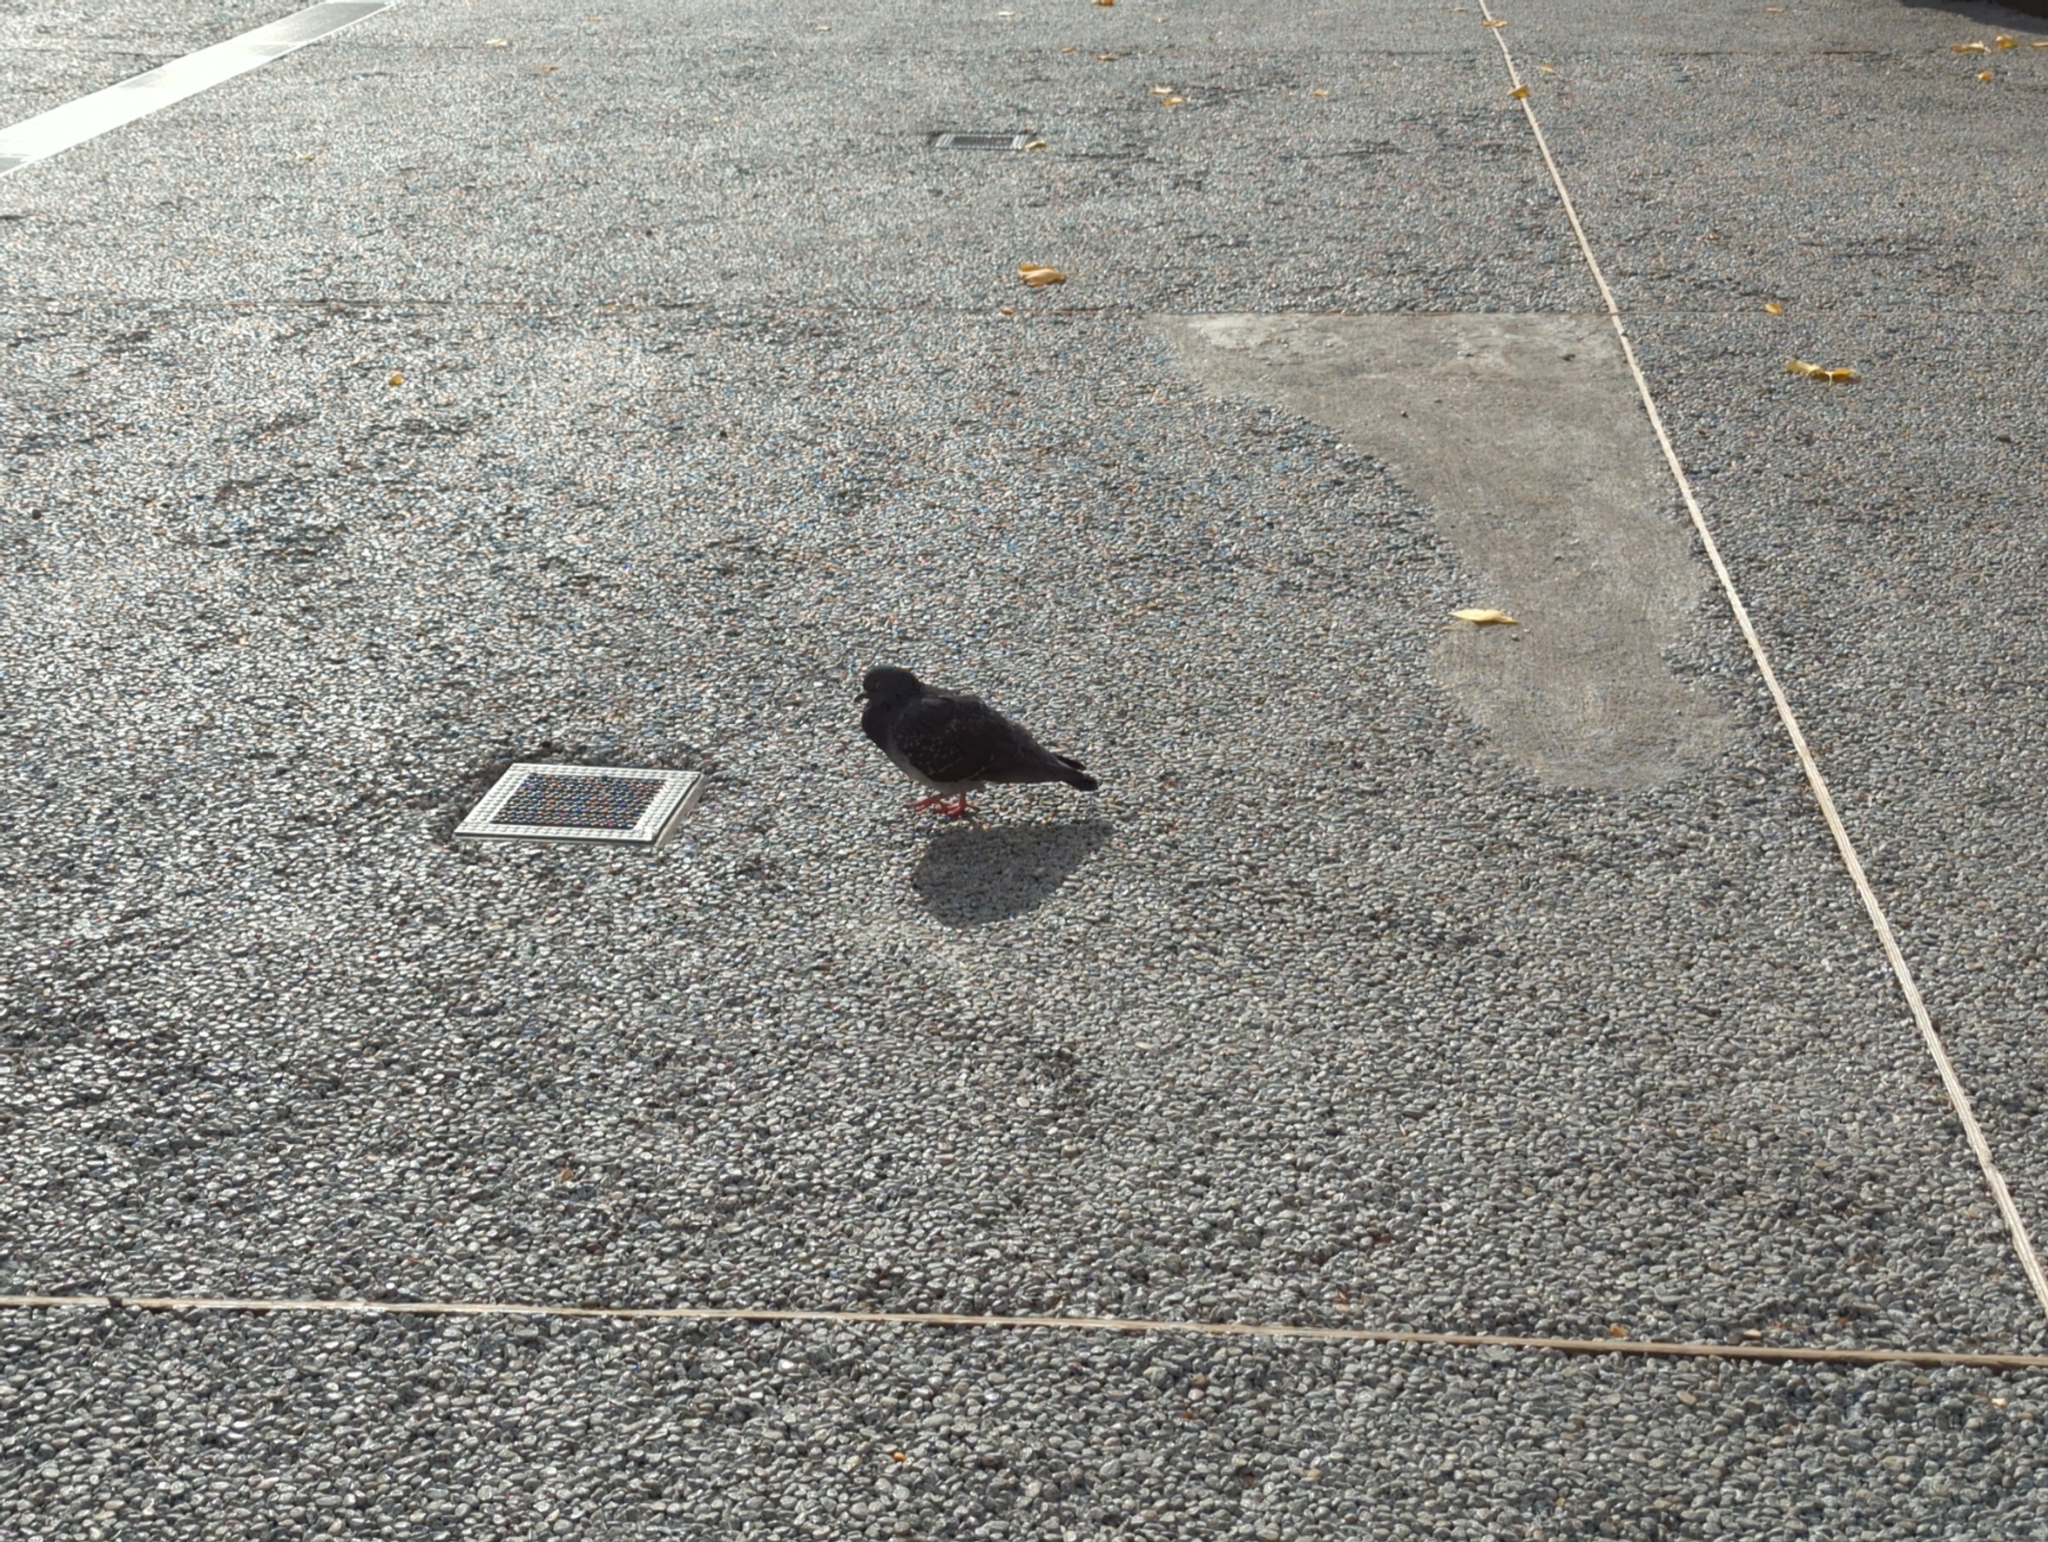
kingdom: Animalia
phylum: Chordata
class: Aves
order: Columbiformes
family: Columbidae
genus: Columba
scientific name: Columba livia
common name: Rock pigeon
